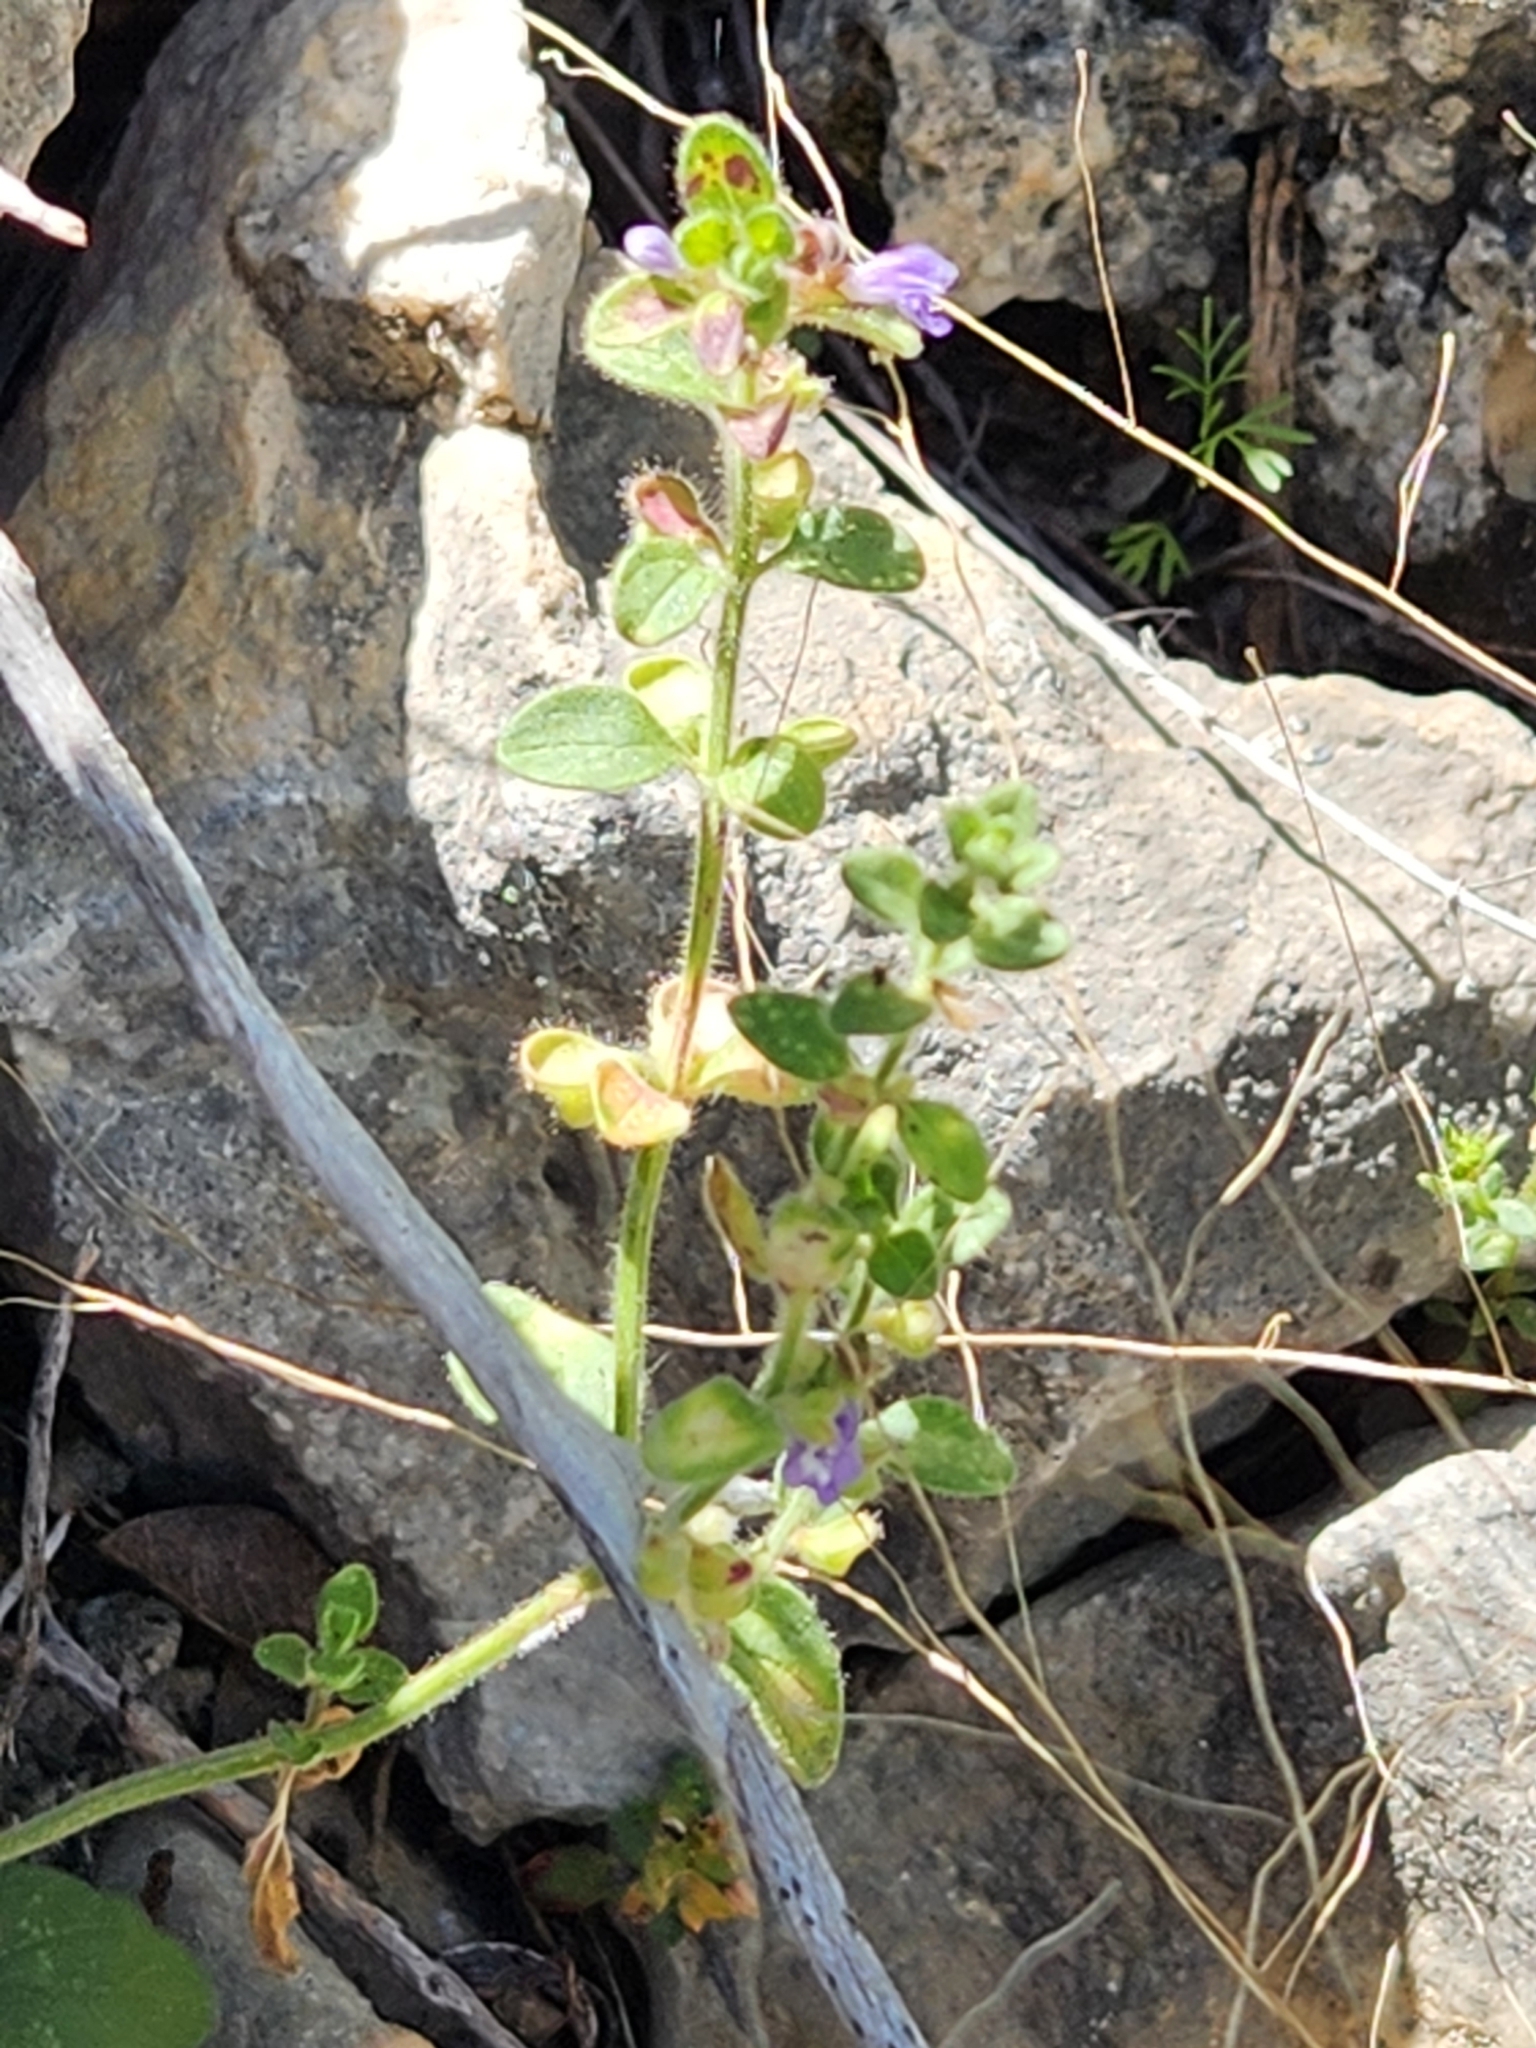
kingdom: Plantae
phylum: Tracheophyta
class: Magnoliopsida
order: Lamiales
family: Lamiaceae
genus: Scutellaria
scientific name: Scutellaria drummondii
